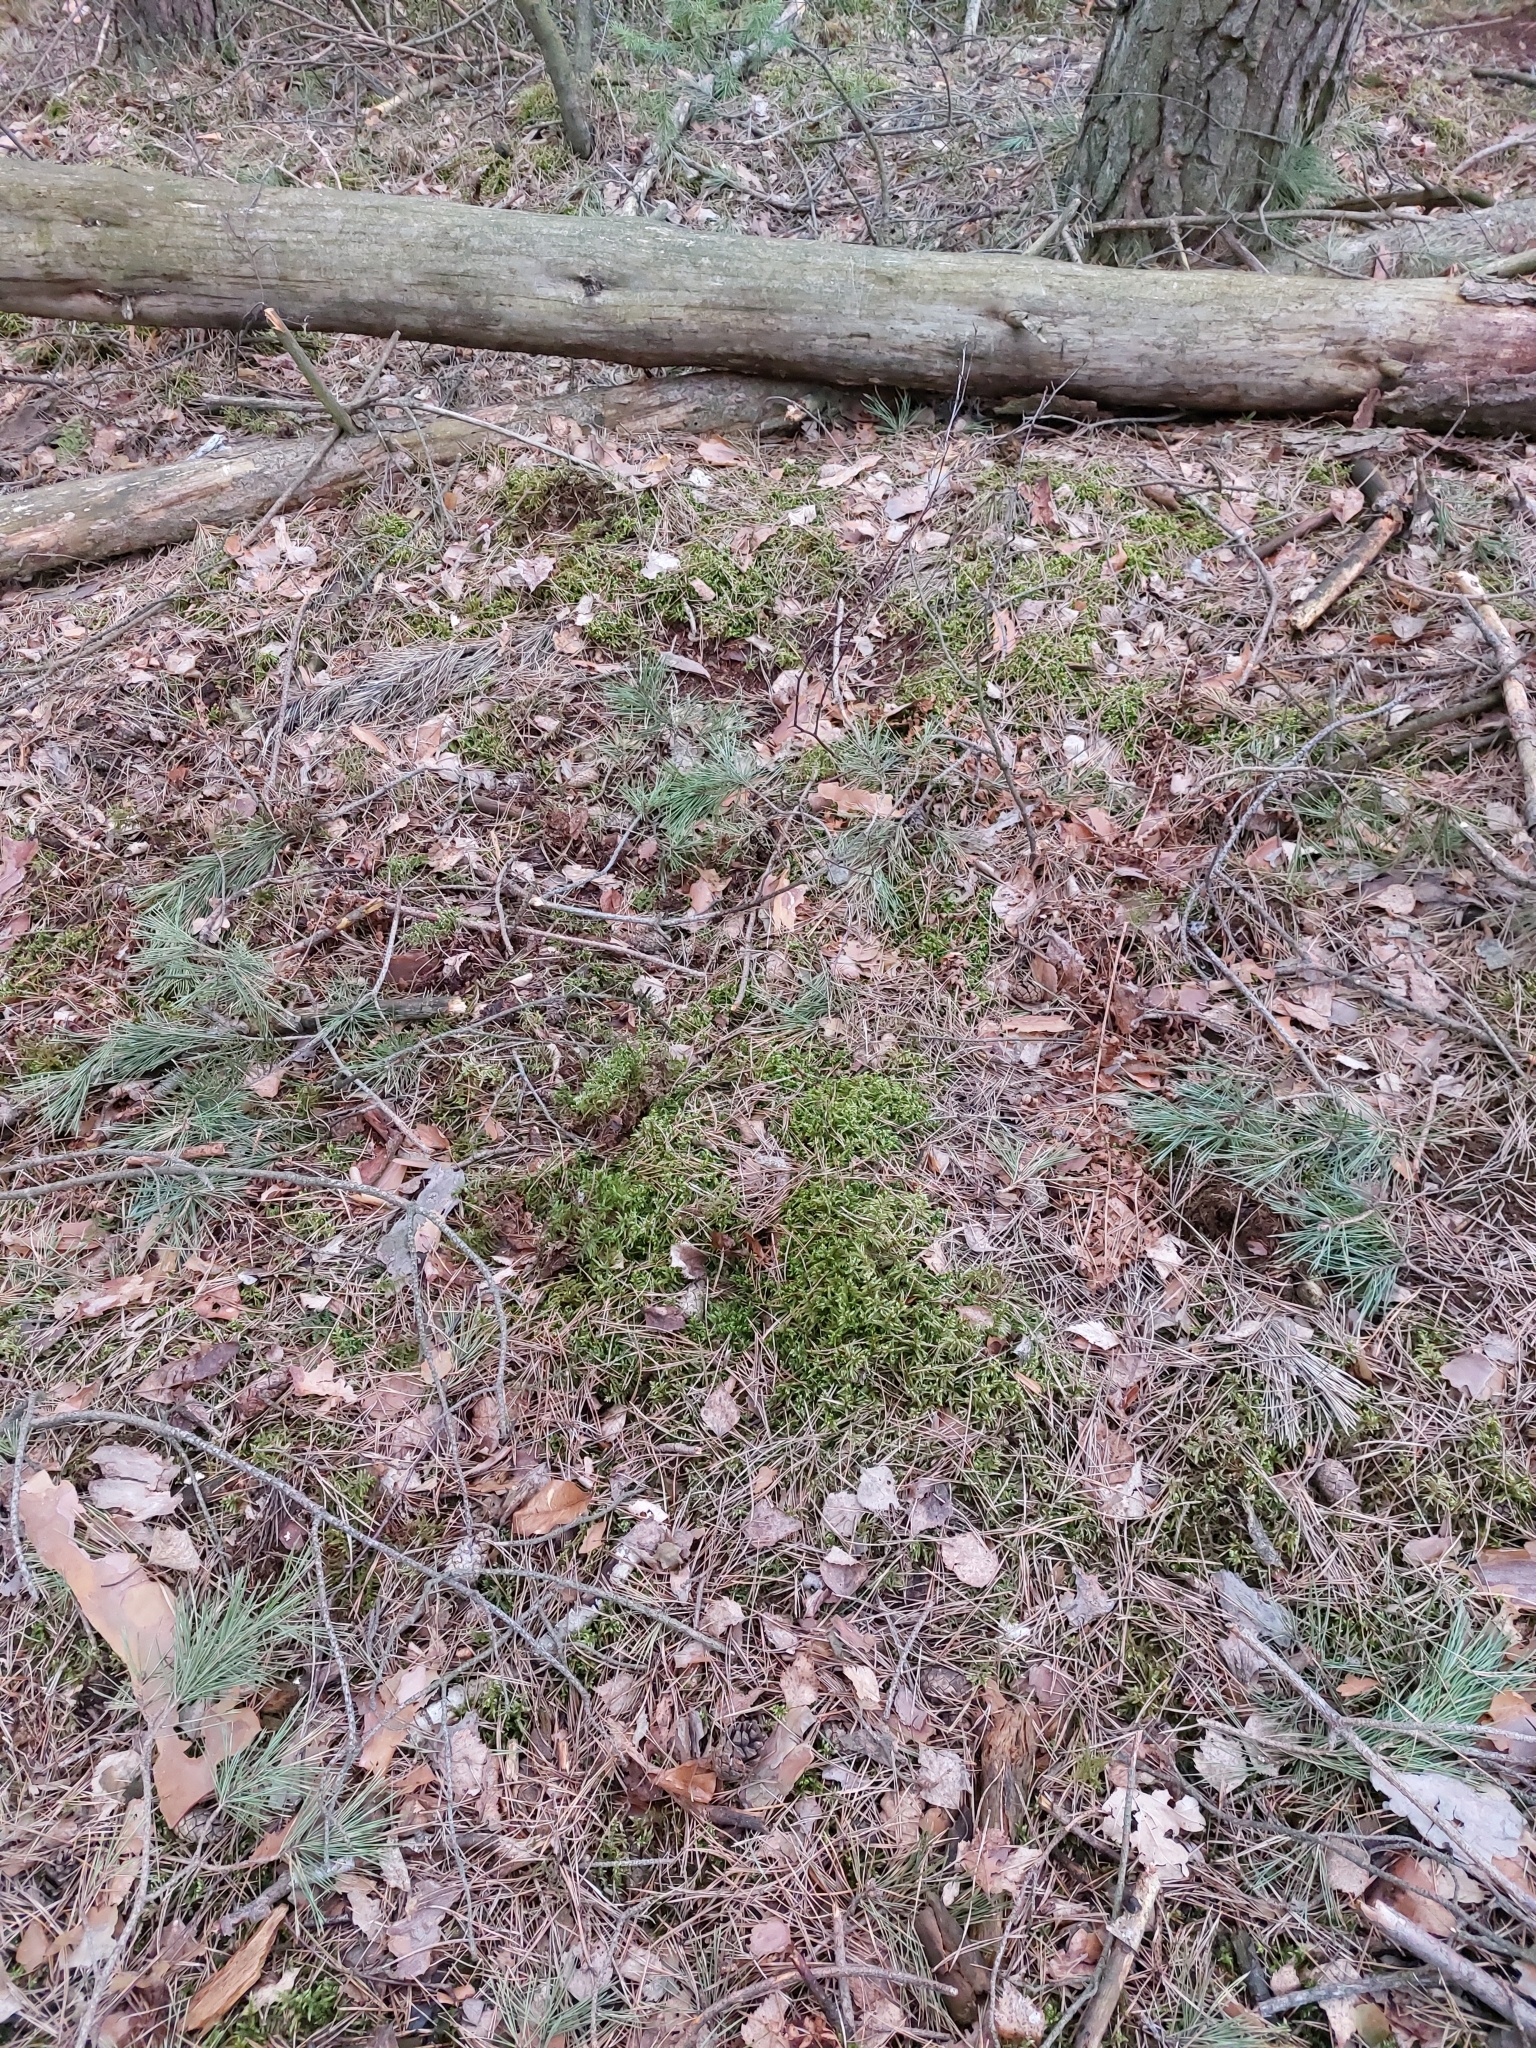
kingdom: Plantae
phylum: Bryophyta
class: Bryopsida
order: Hypnales
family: Hylocomiaceae
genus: Pleurozium
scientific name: Pleurozium schreberi
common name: Red-stemmed feather moss
